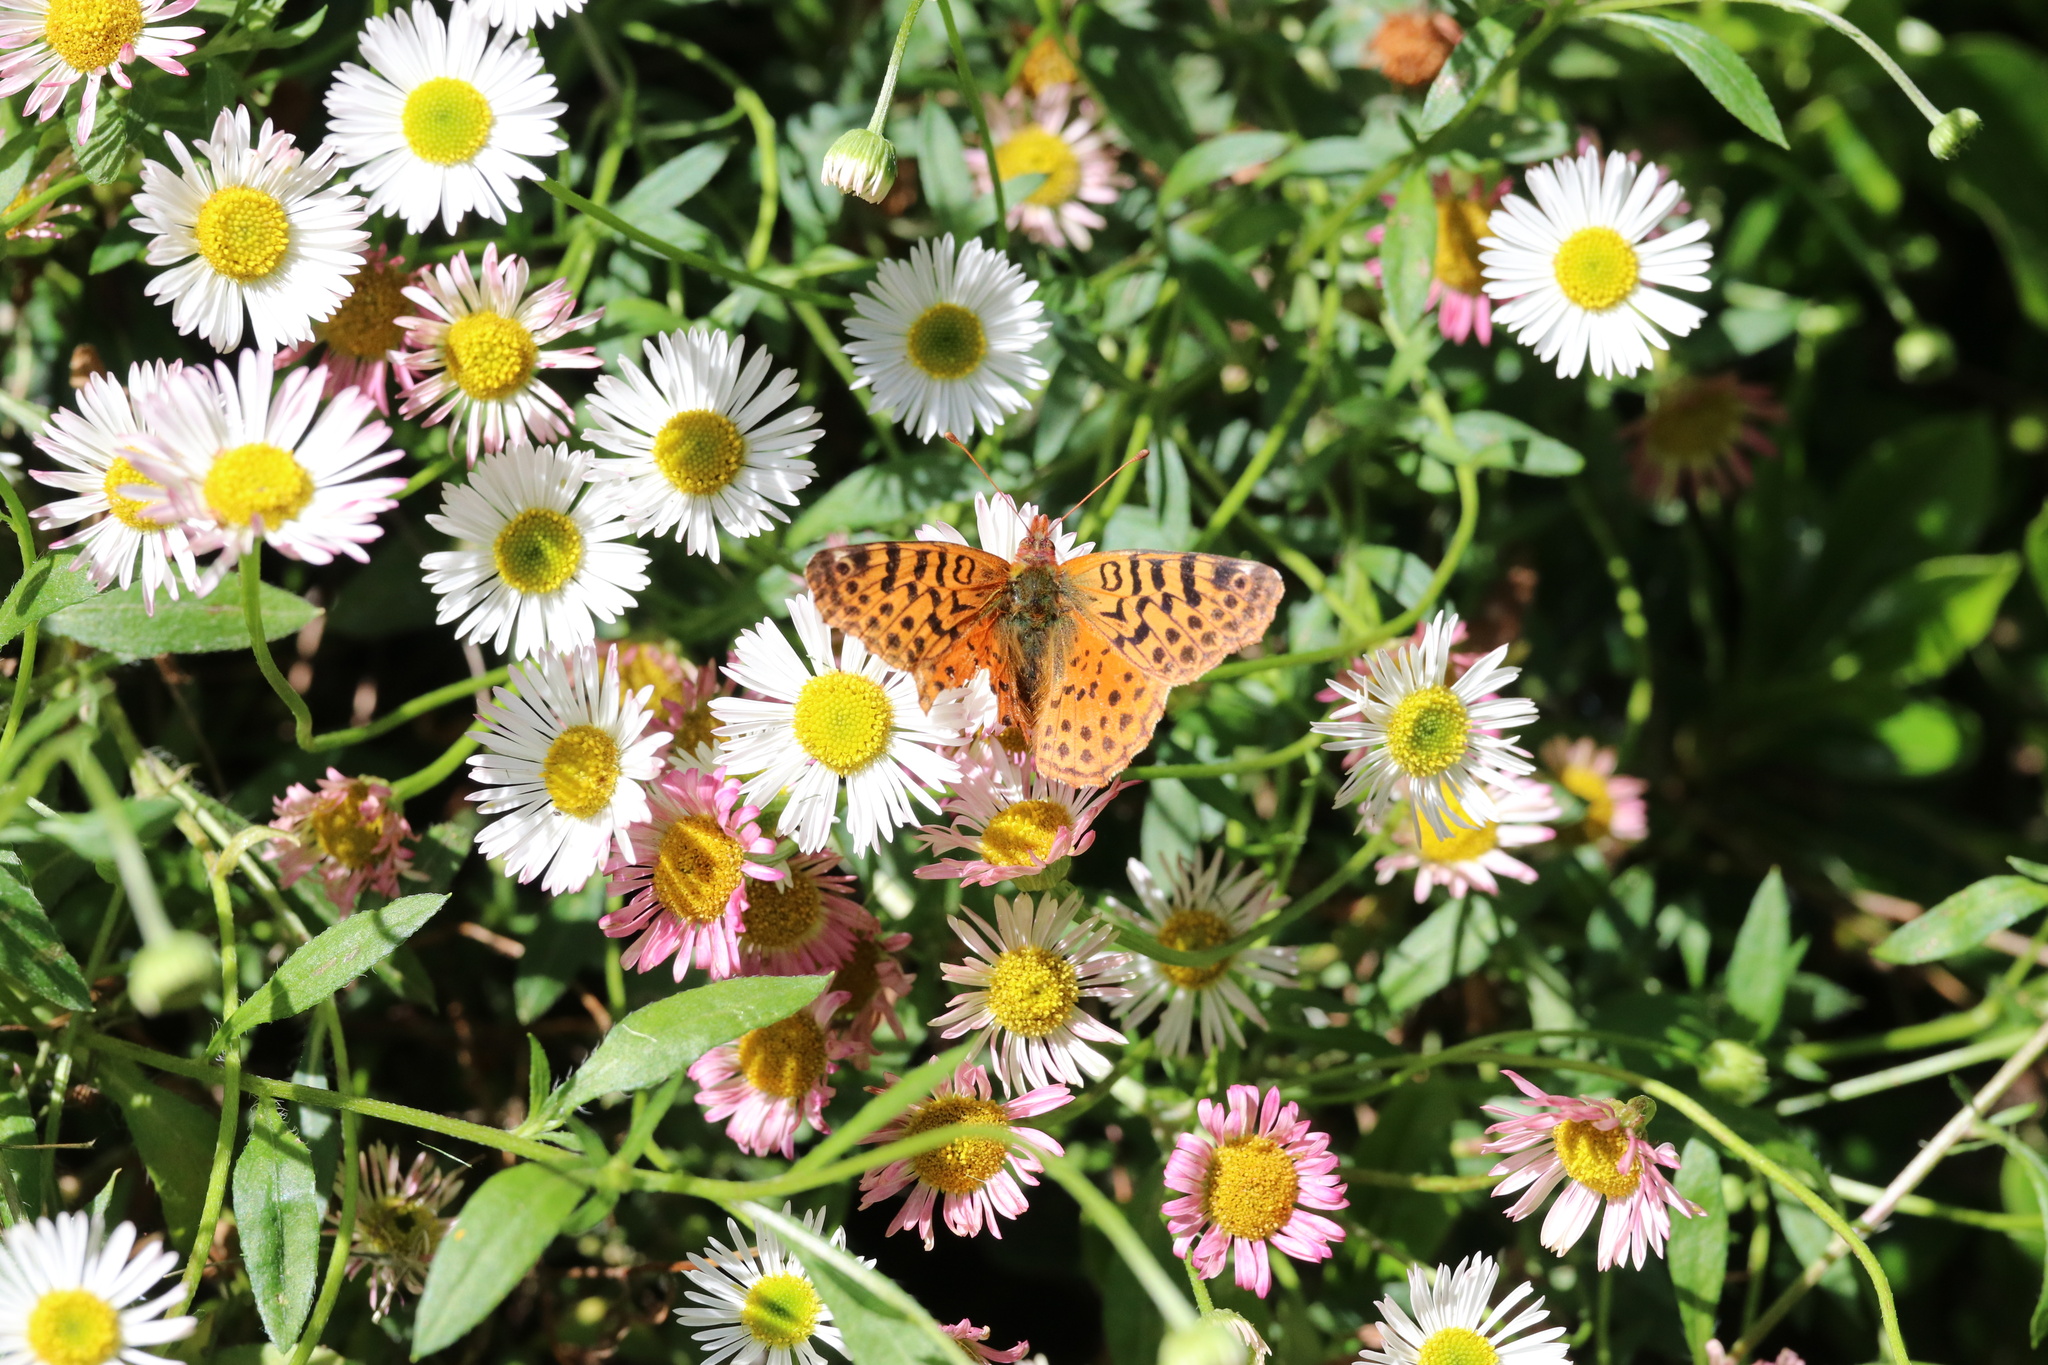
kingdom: Animalia
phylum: Arthropoda
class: Insecta
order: Lepidoptera
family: Nymphalidae
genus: Issoria
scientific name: Issoria Yramea cytheris
